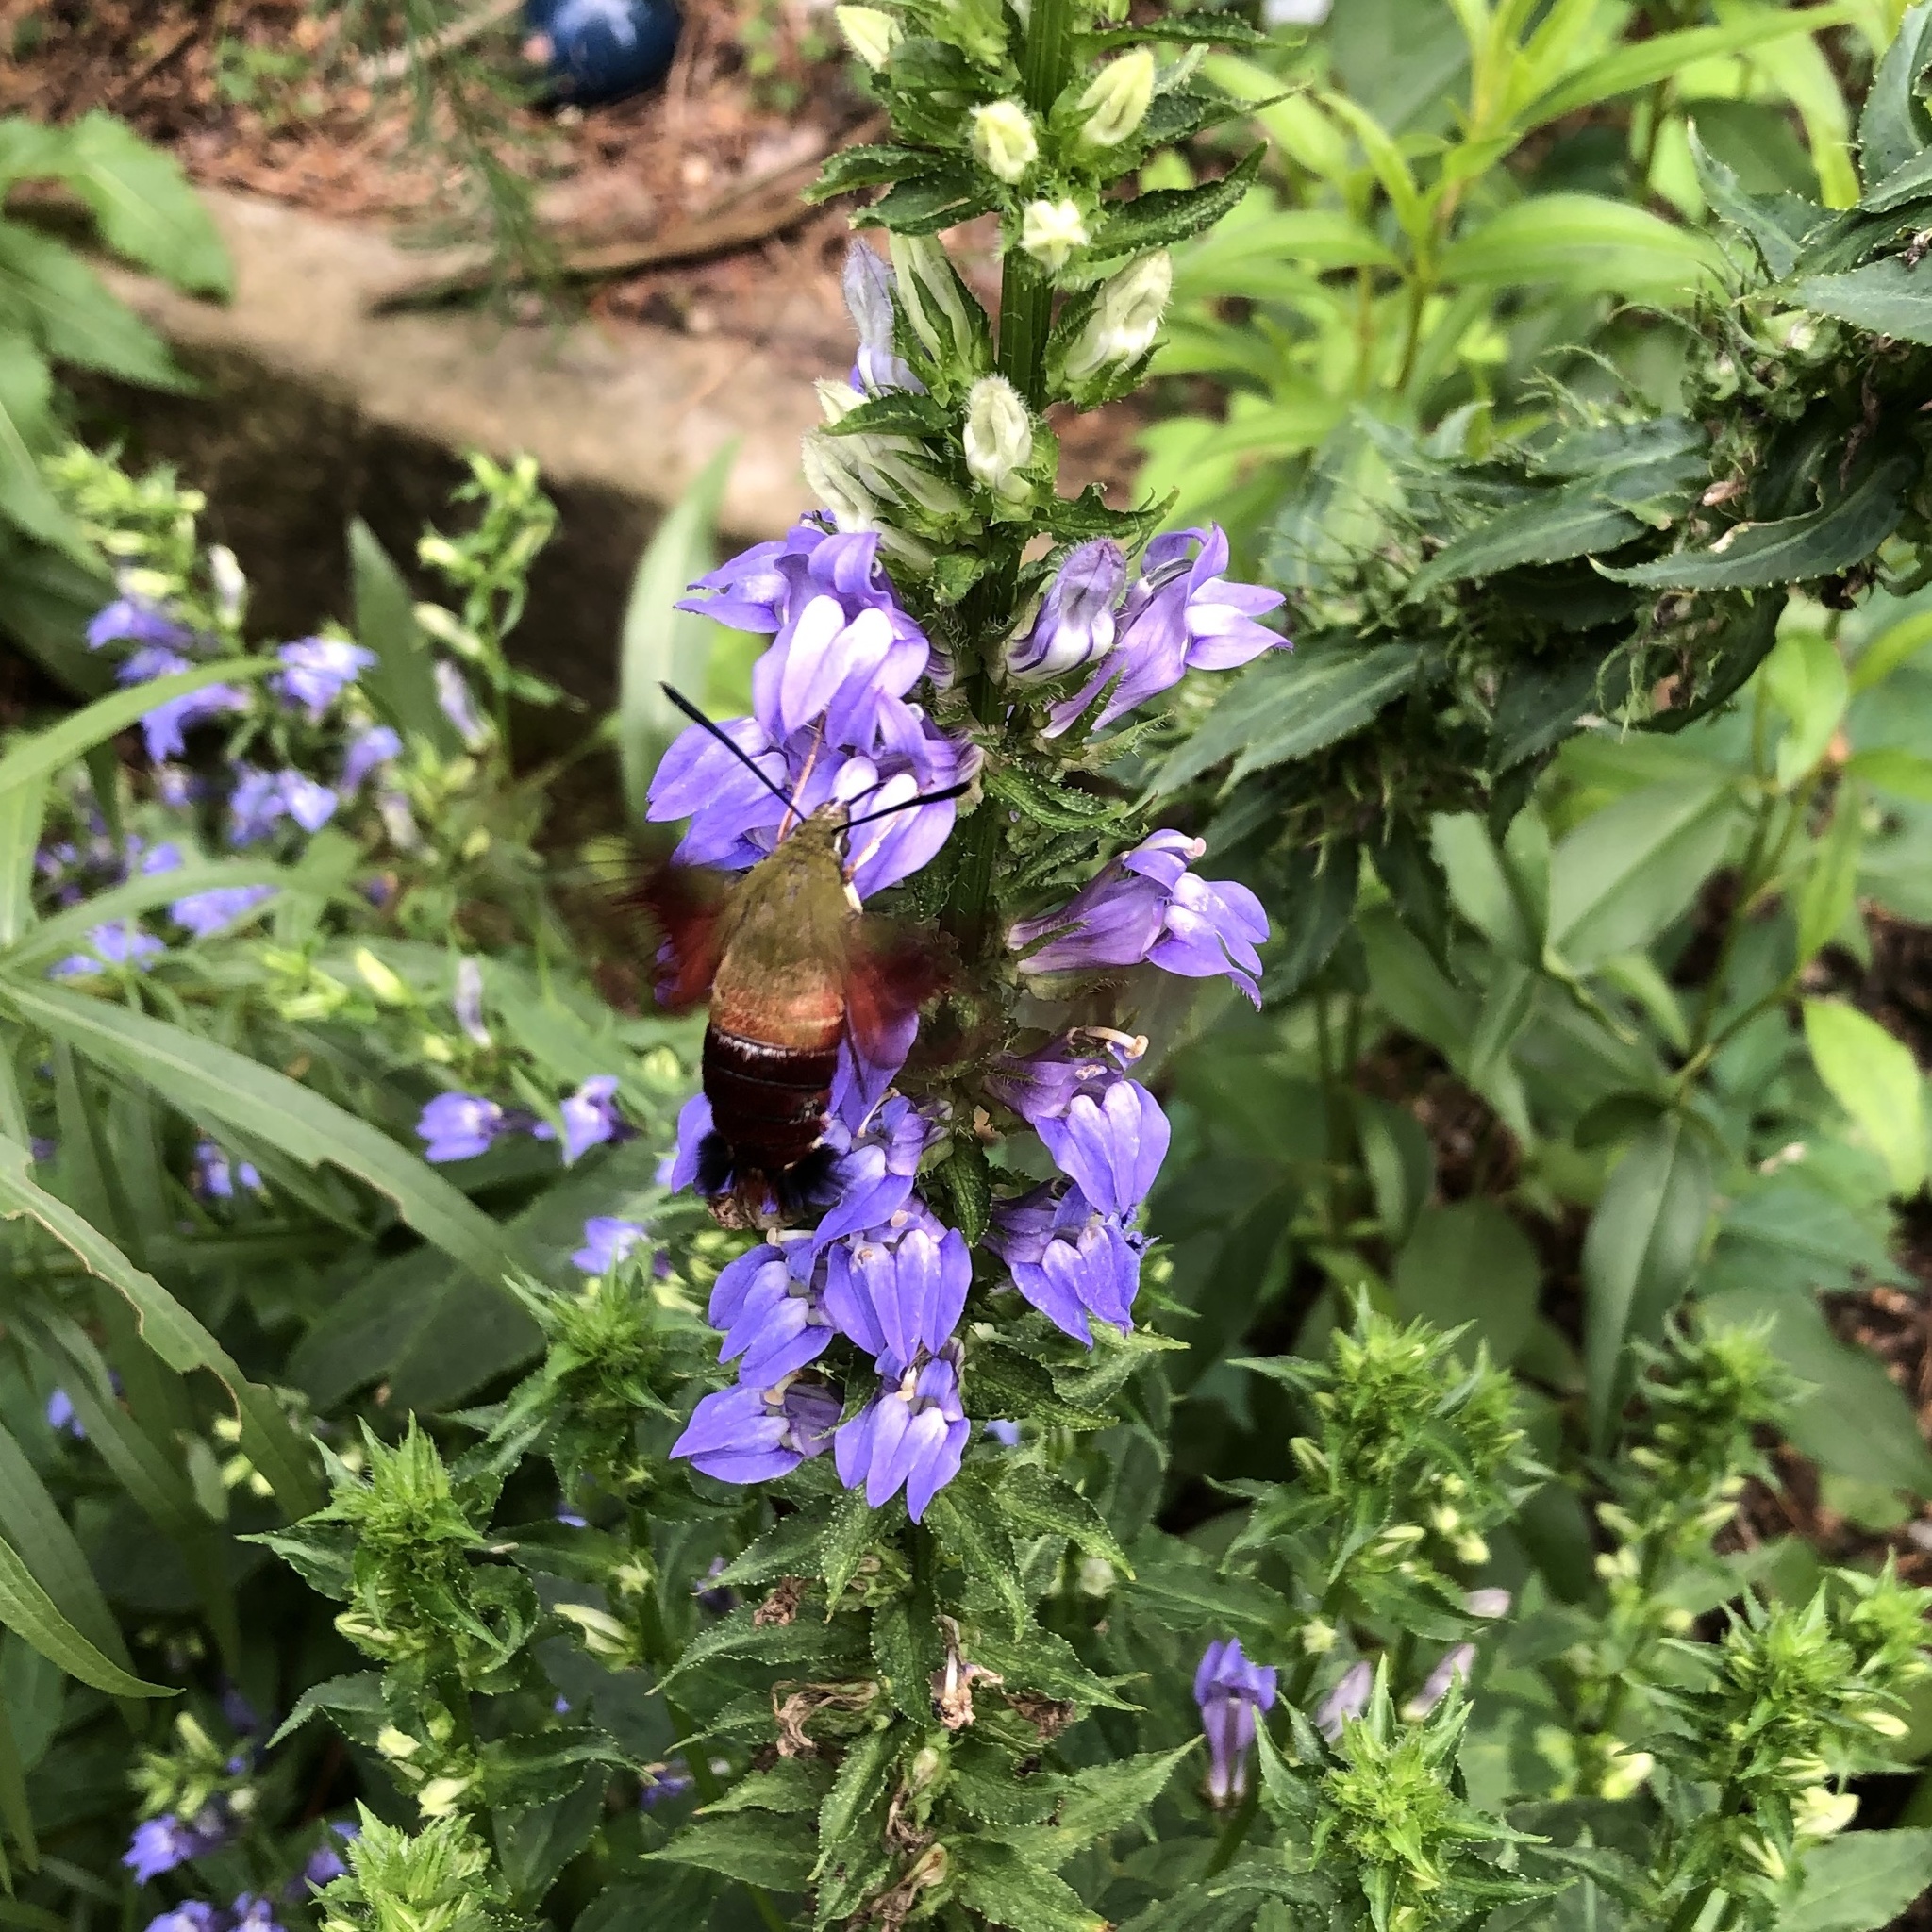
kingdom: Animalia
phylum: Arthropoda
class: Insecta
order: Lepidoptera
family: Sphingidae
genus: Hemaris
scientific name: Hemaris thysbe
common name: Common clear-wing
